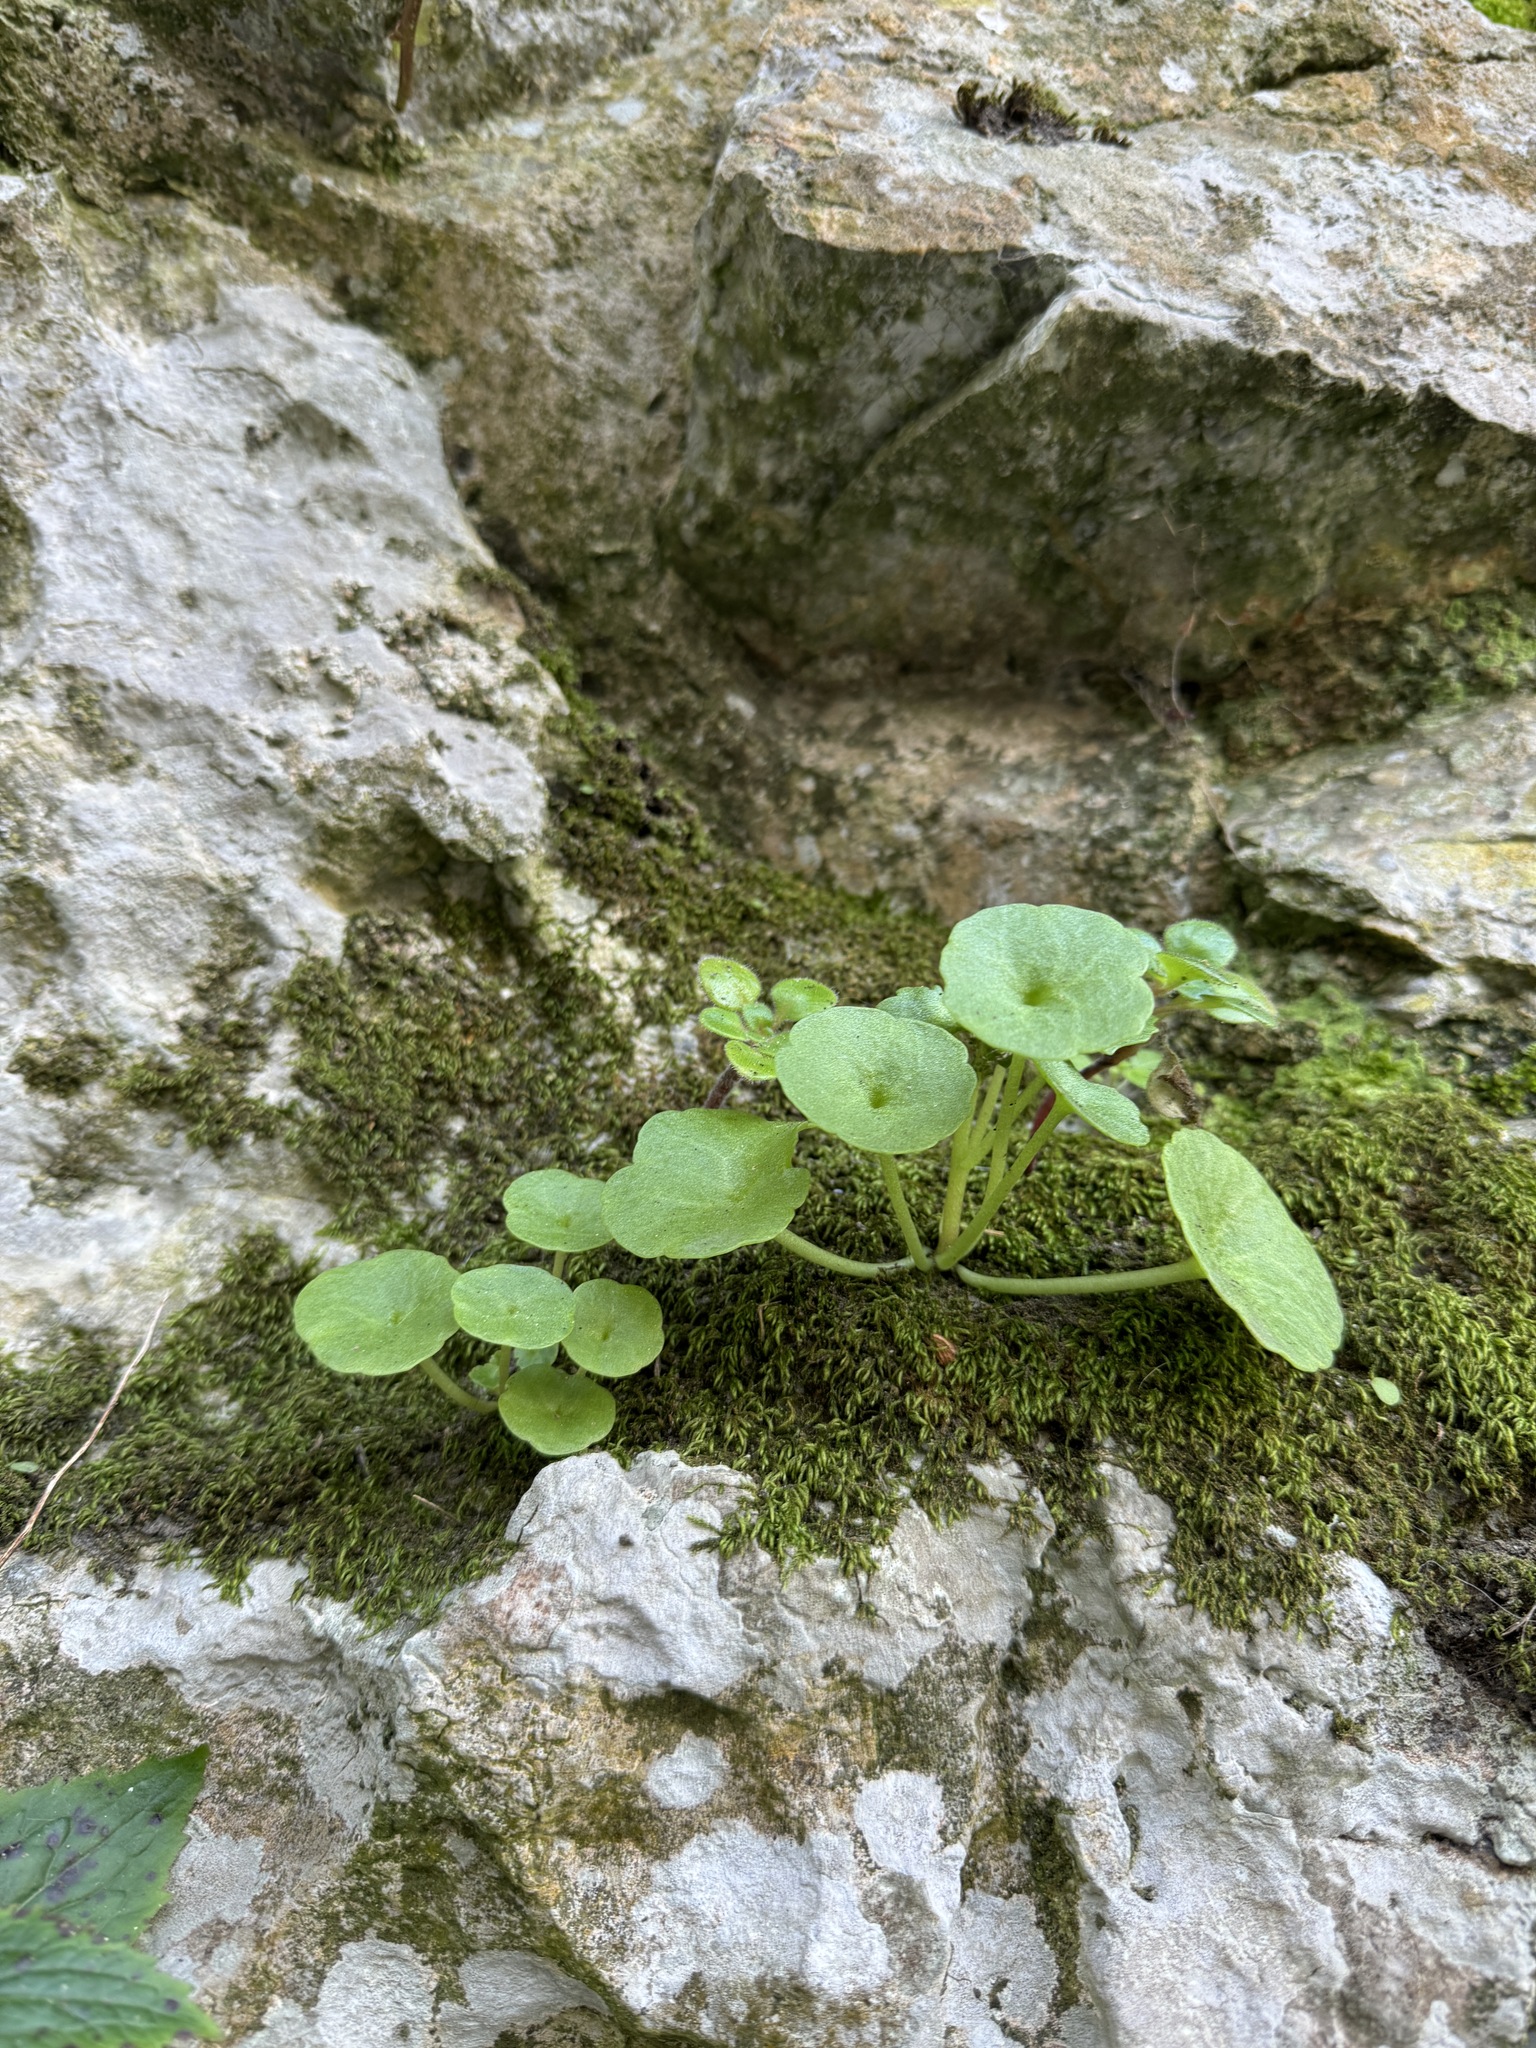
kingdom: Plantae
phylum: Tracheophyta
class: Magnoliopsida
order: Saxifragales
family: Crassulaceae
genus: Umbilicus
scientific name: Umbilicus rupestris
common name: Navelwort
